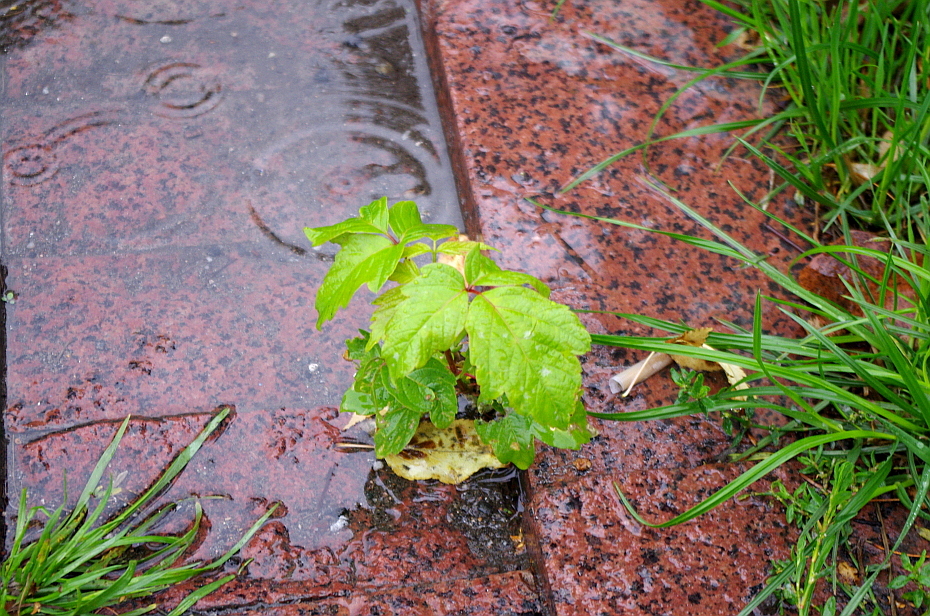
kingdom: Plantae
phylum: Tracheophyta
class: Magnoliopsida
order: Sapindales
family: Sapindaceae
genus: Acer
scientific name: Acer negundo
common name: Ashleaf maple
